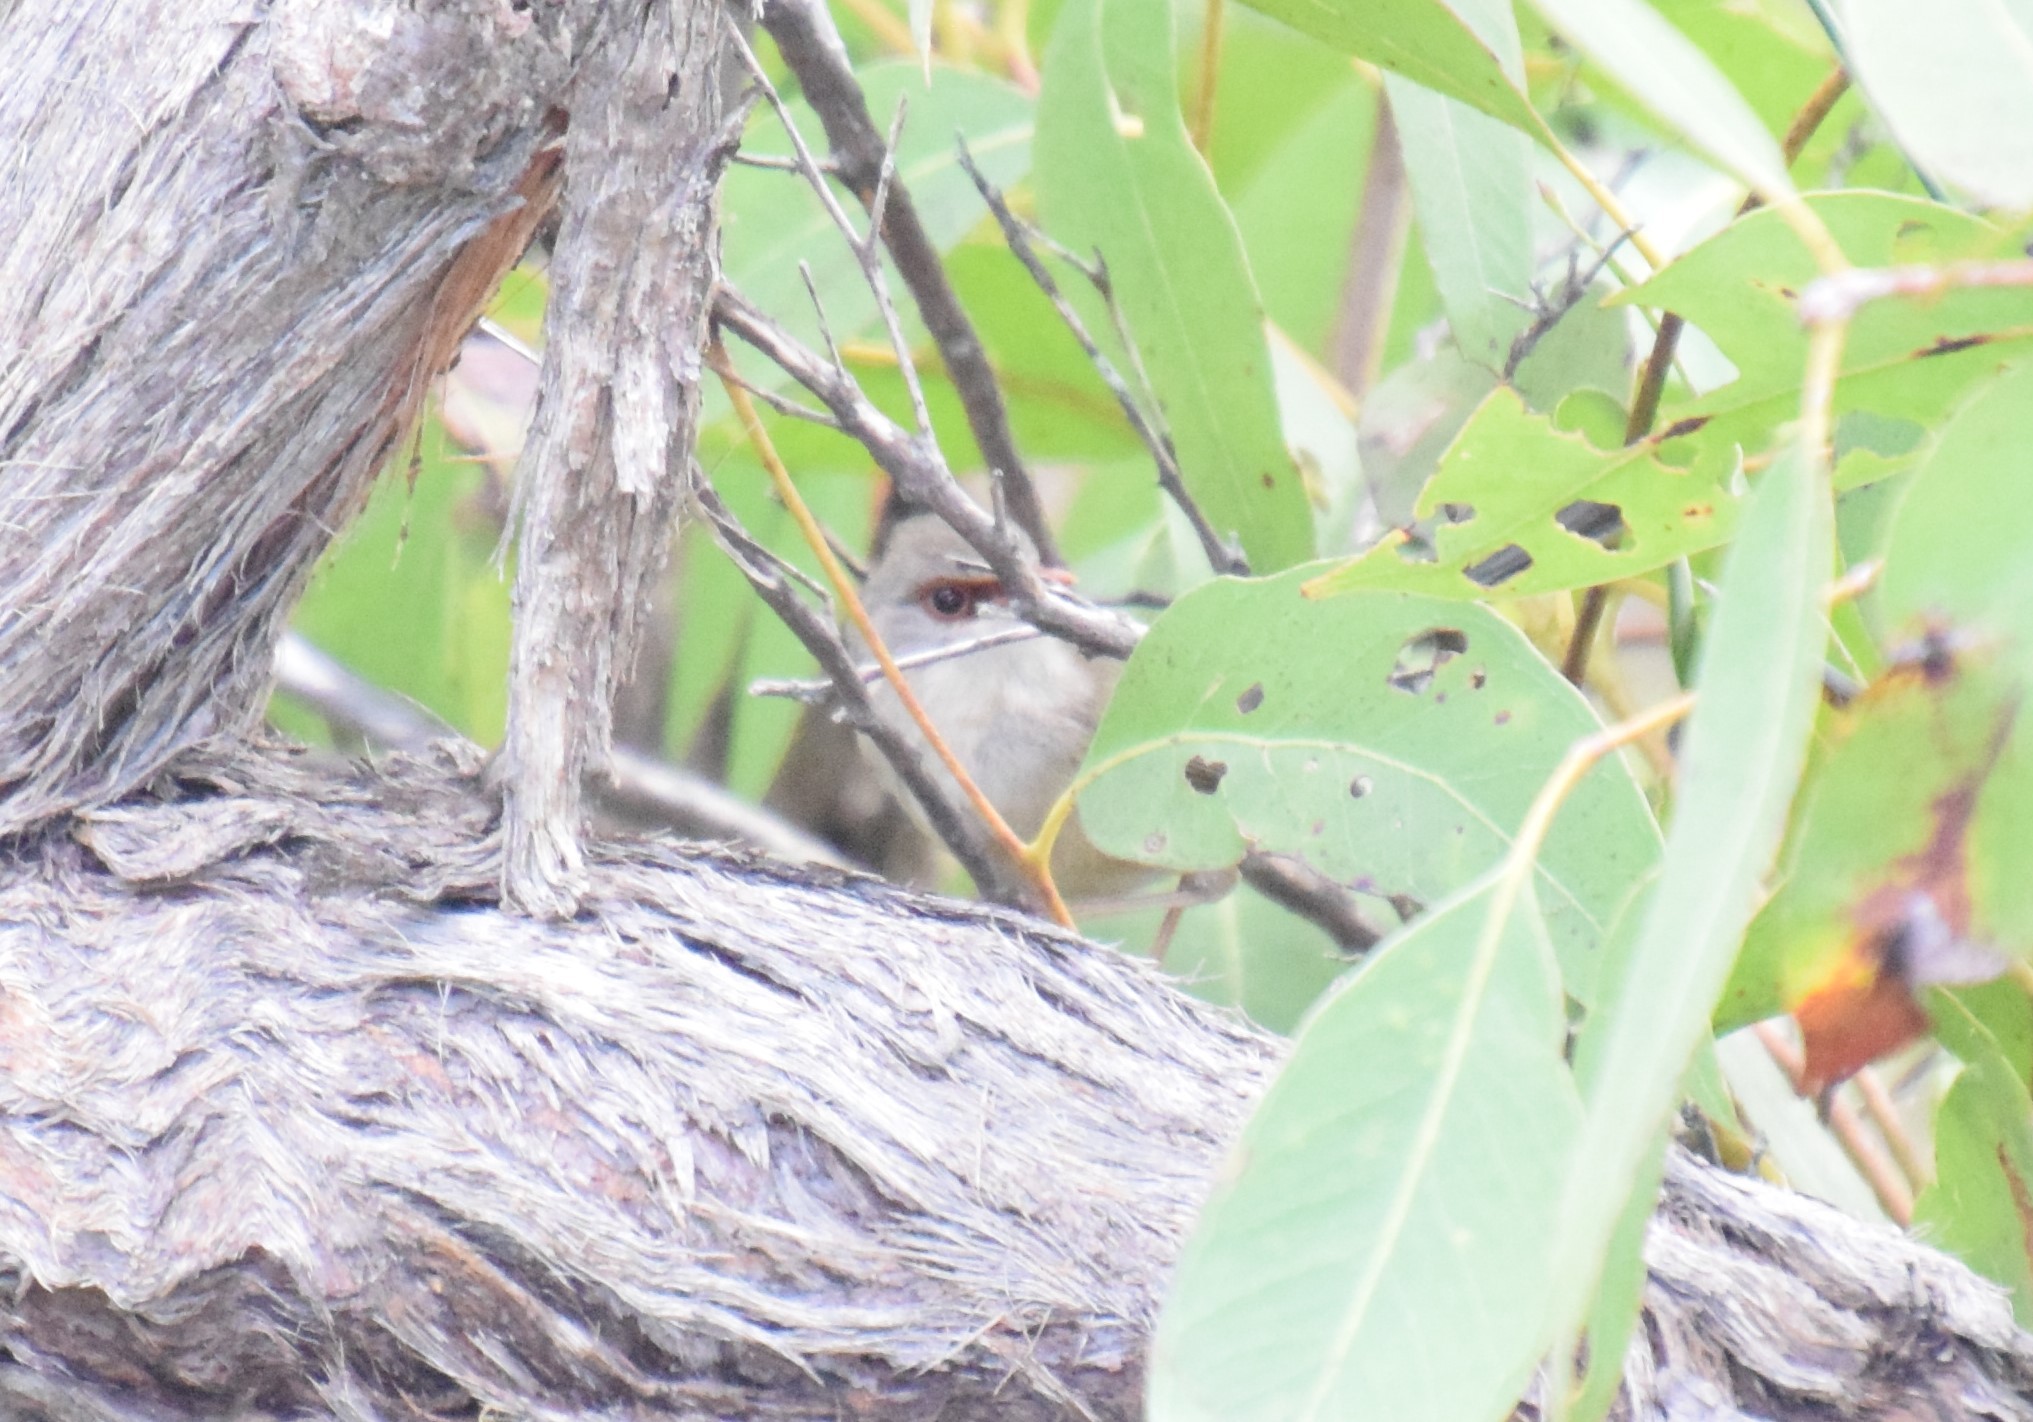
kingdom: Animalia
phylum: Chordata
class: Aves
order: Passeriformes
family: Maluridae
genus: Malurus
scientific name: Malurus lamberti
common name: Variegated fairywren
